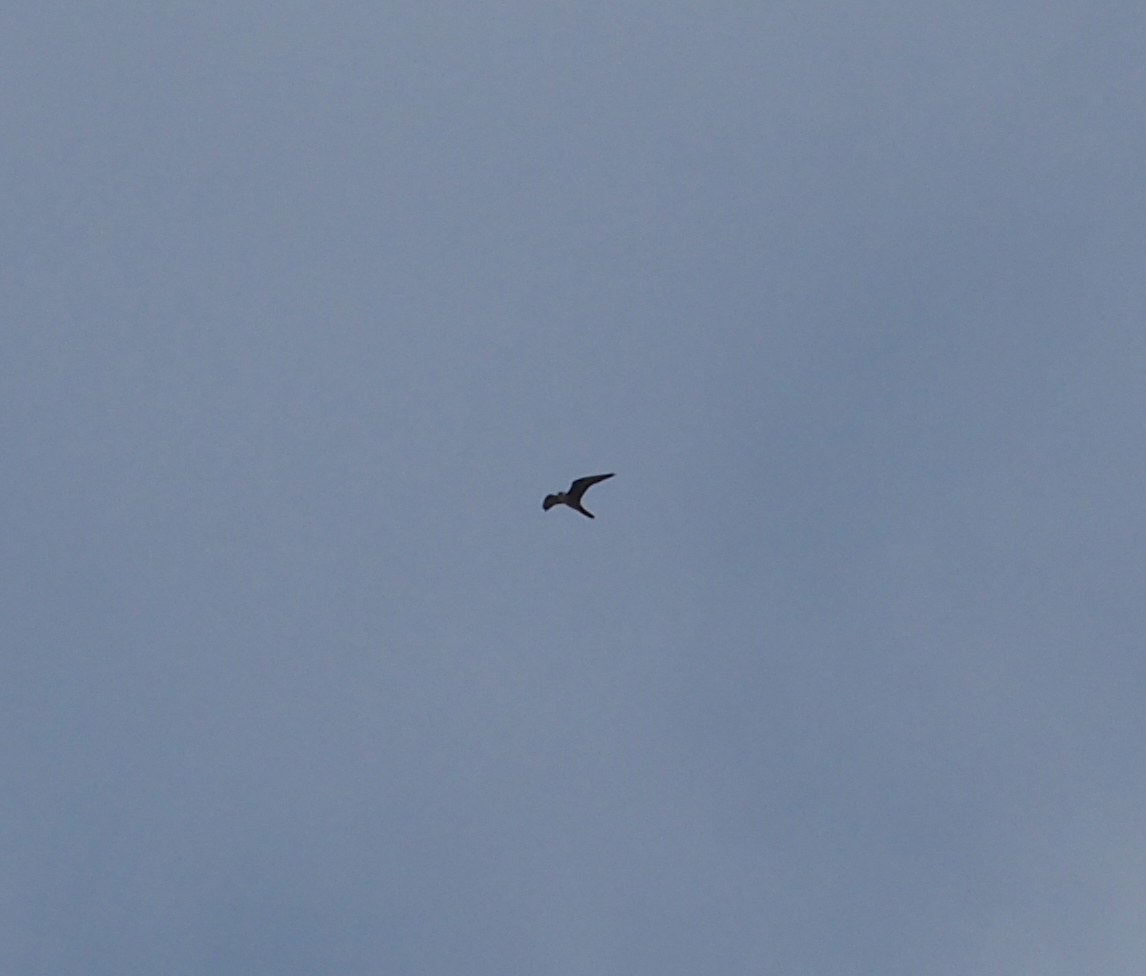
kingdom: Animalia
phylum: Chordata
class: Aves
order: Falconiformes
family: Falconidae
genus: Falco
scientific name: Falco eleonorae
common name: Eleonora's falcon
